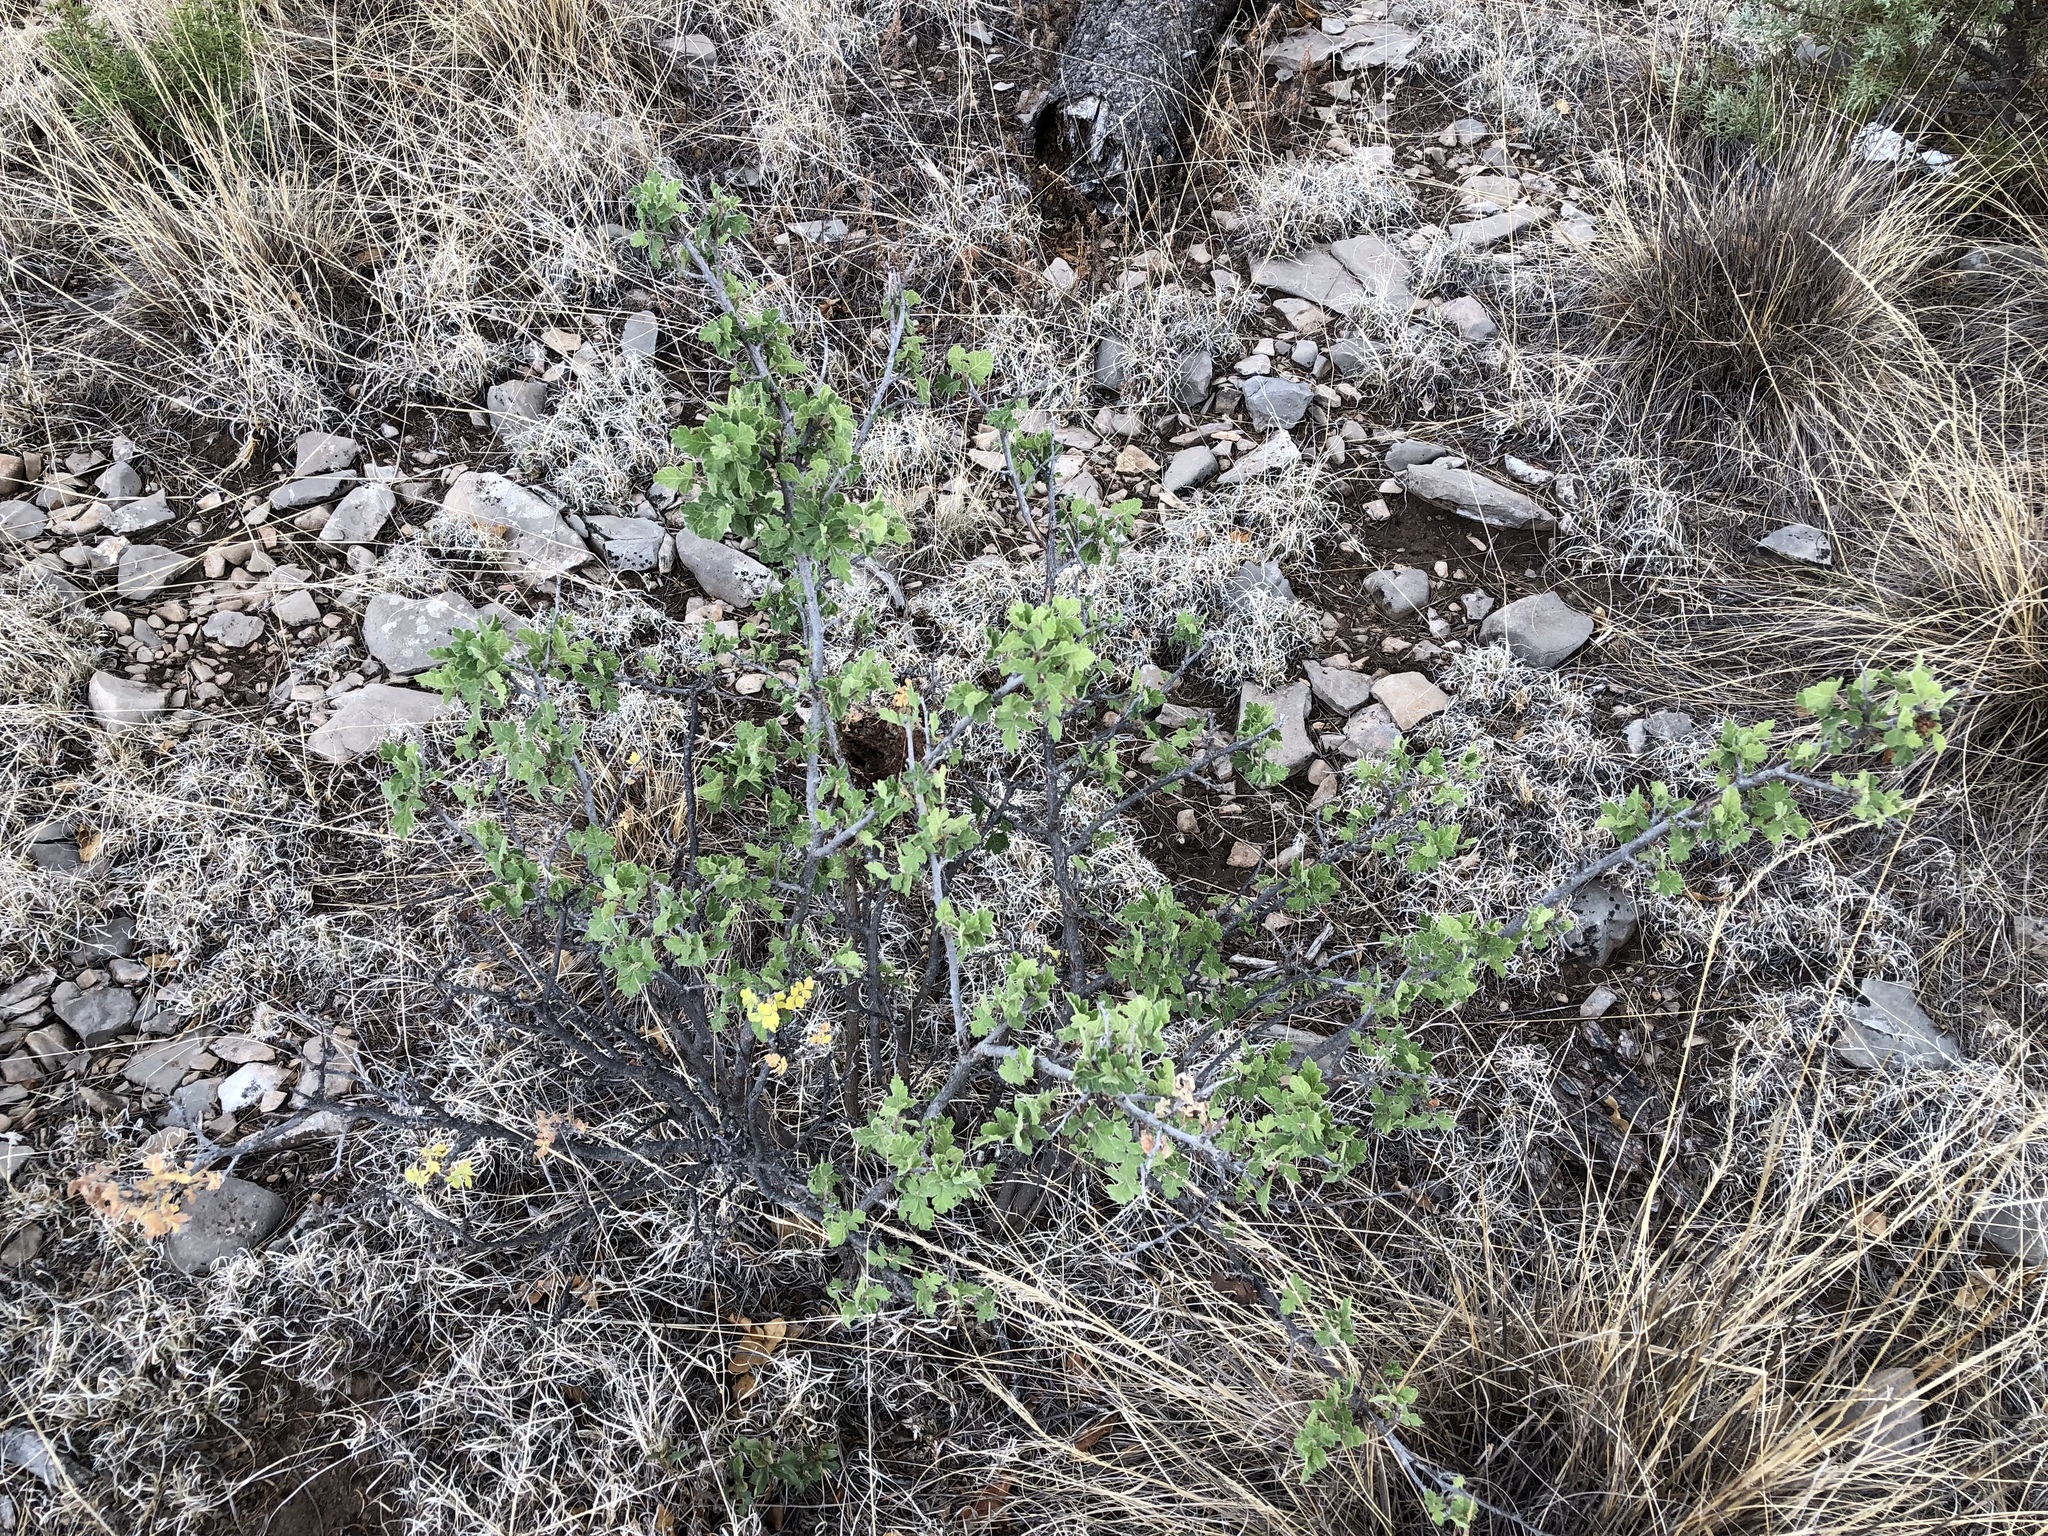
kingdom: Plantae
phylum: Tracheophyta
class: Magnoliopsida
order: Sapindales
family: Anacardiaceae
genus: Rhus
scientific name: Rhus aromatica
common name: Aromatic sumac
